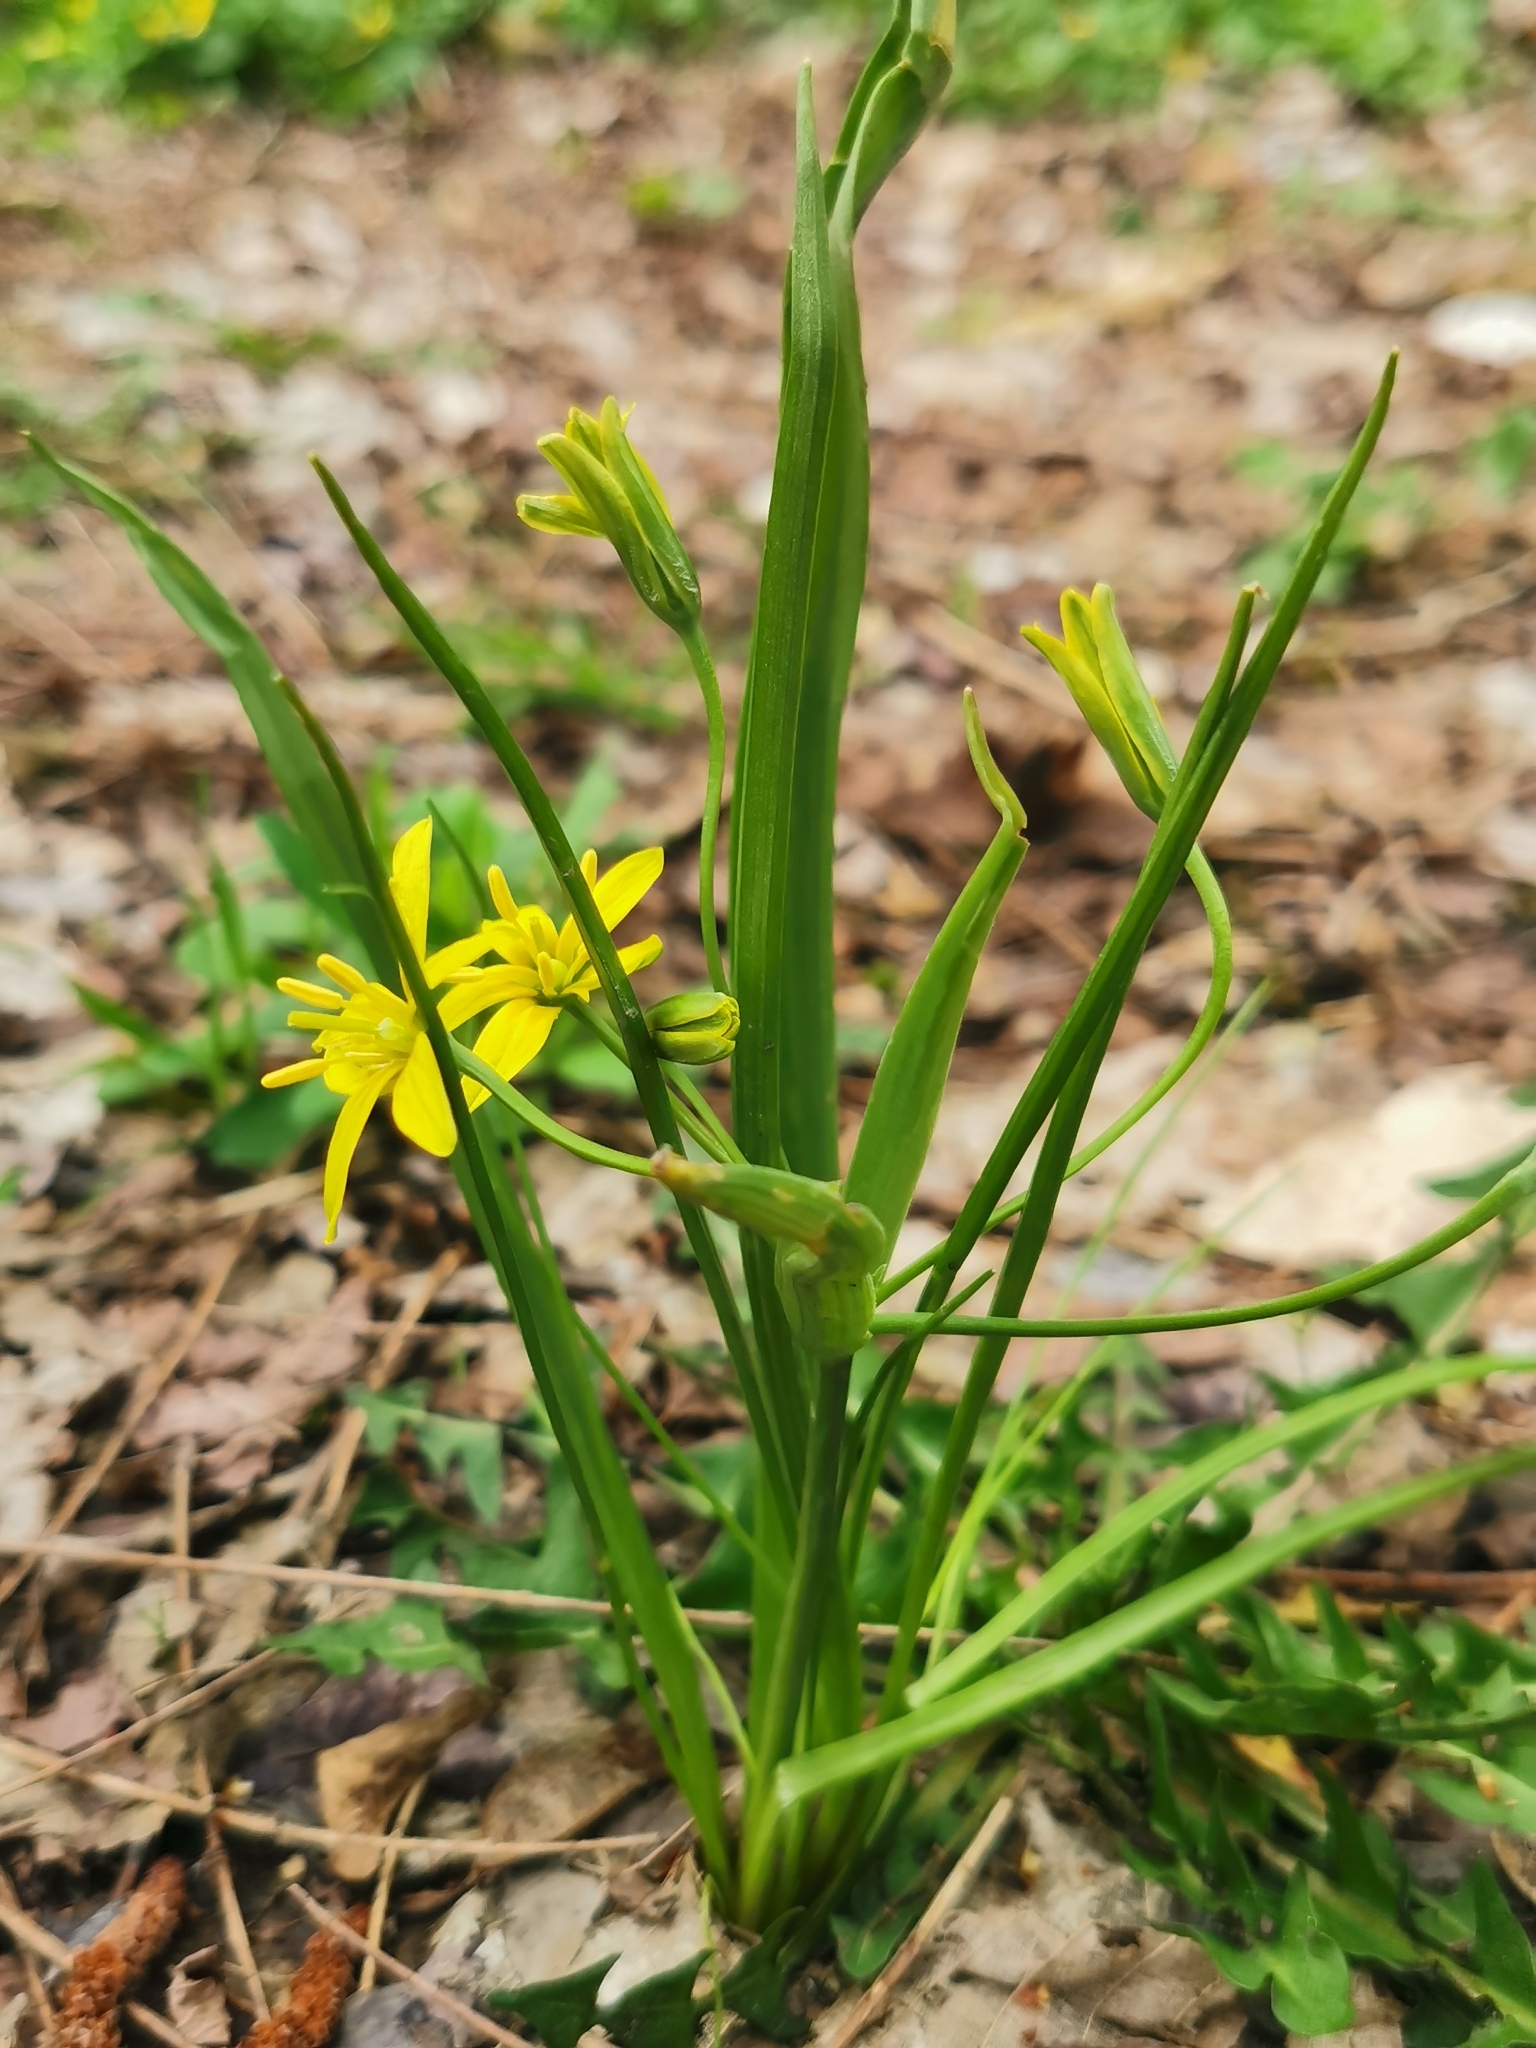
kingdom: Plantae
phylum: Tracheophyta
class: Liliopsida
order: Liliales
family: Liliaceae
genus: Gagea
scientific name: Gagea lutea
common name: Yellow star-of-bethlehem
